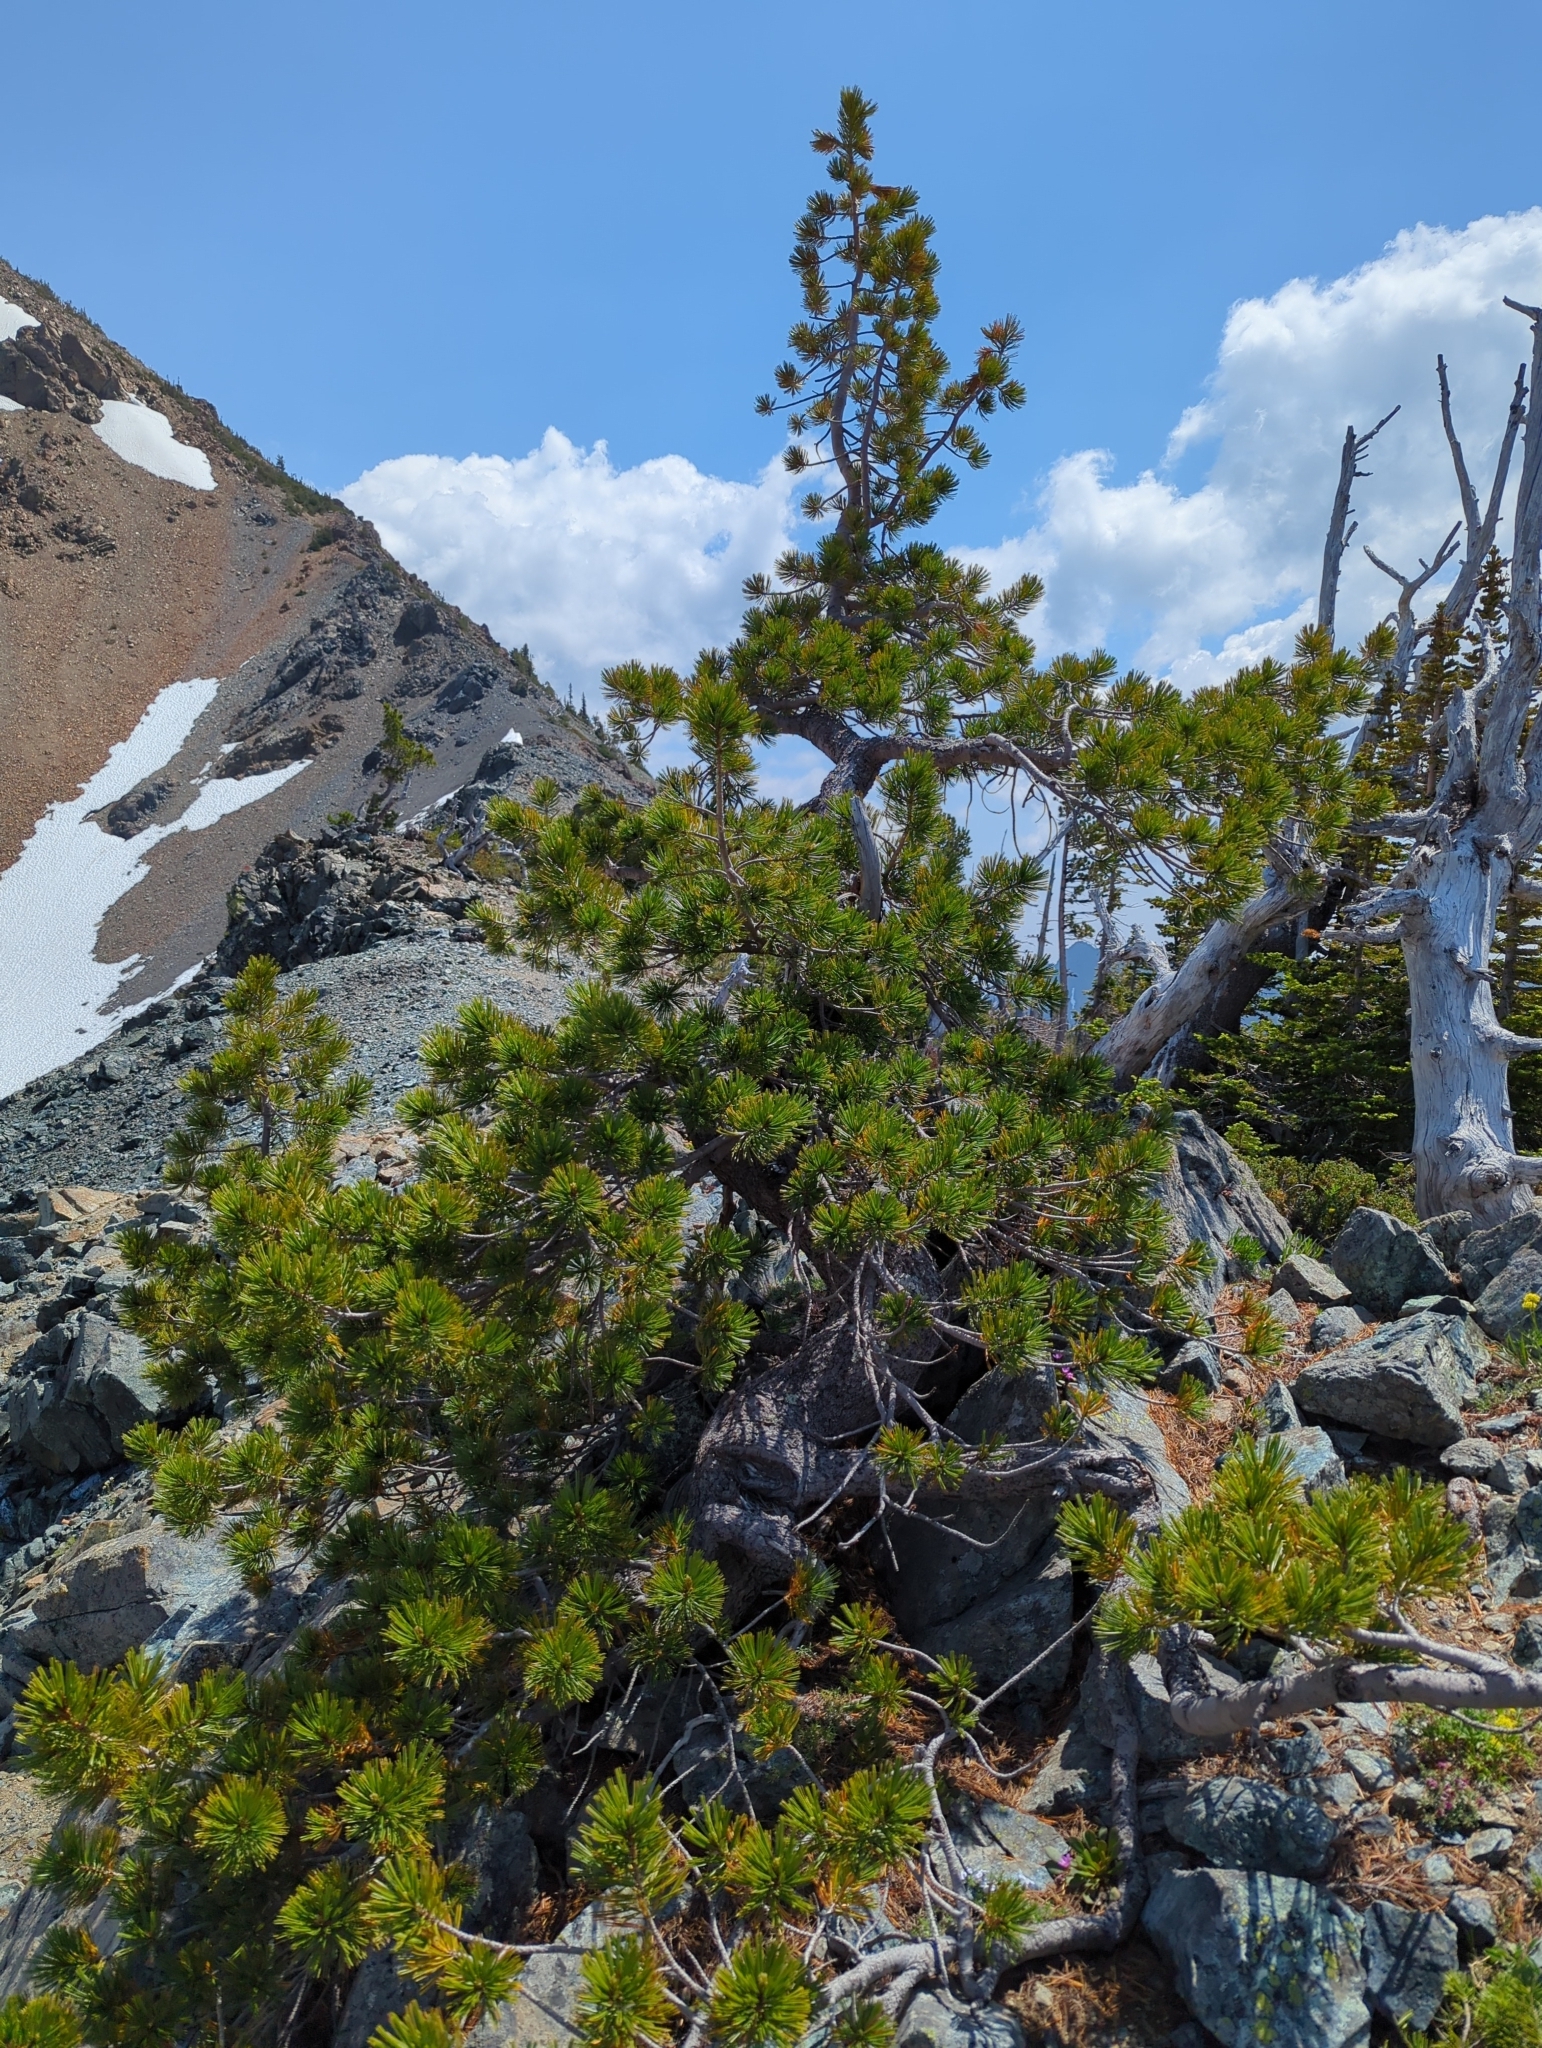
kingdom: Plantae
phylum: Tracheophyta
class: Pinopsida
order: Pinales
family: Pinaceae
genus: Pinus
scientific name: Pinus albicaulis
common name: Whitebark pine
